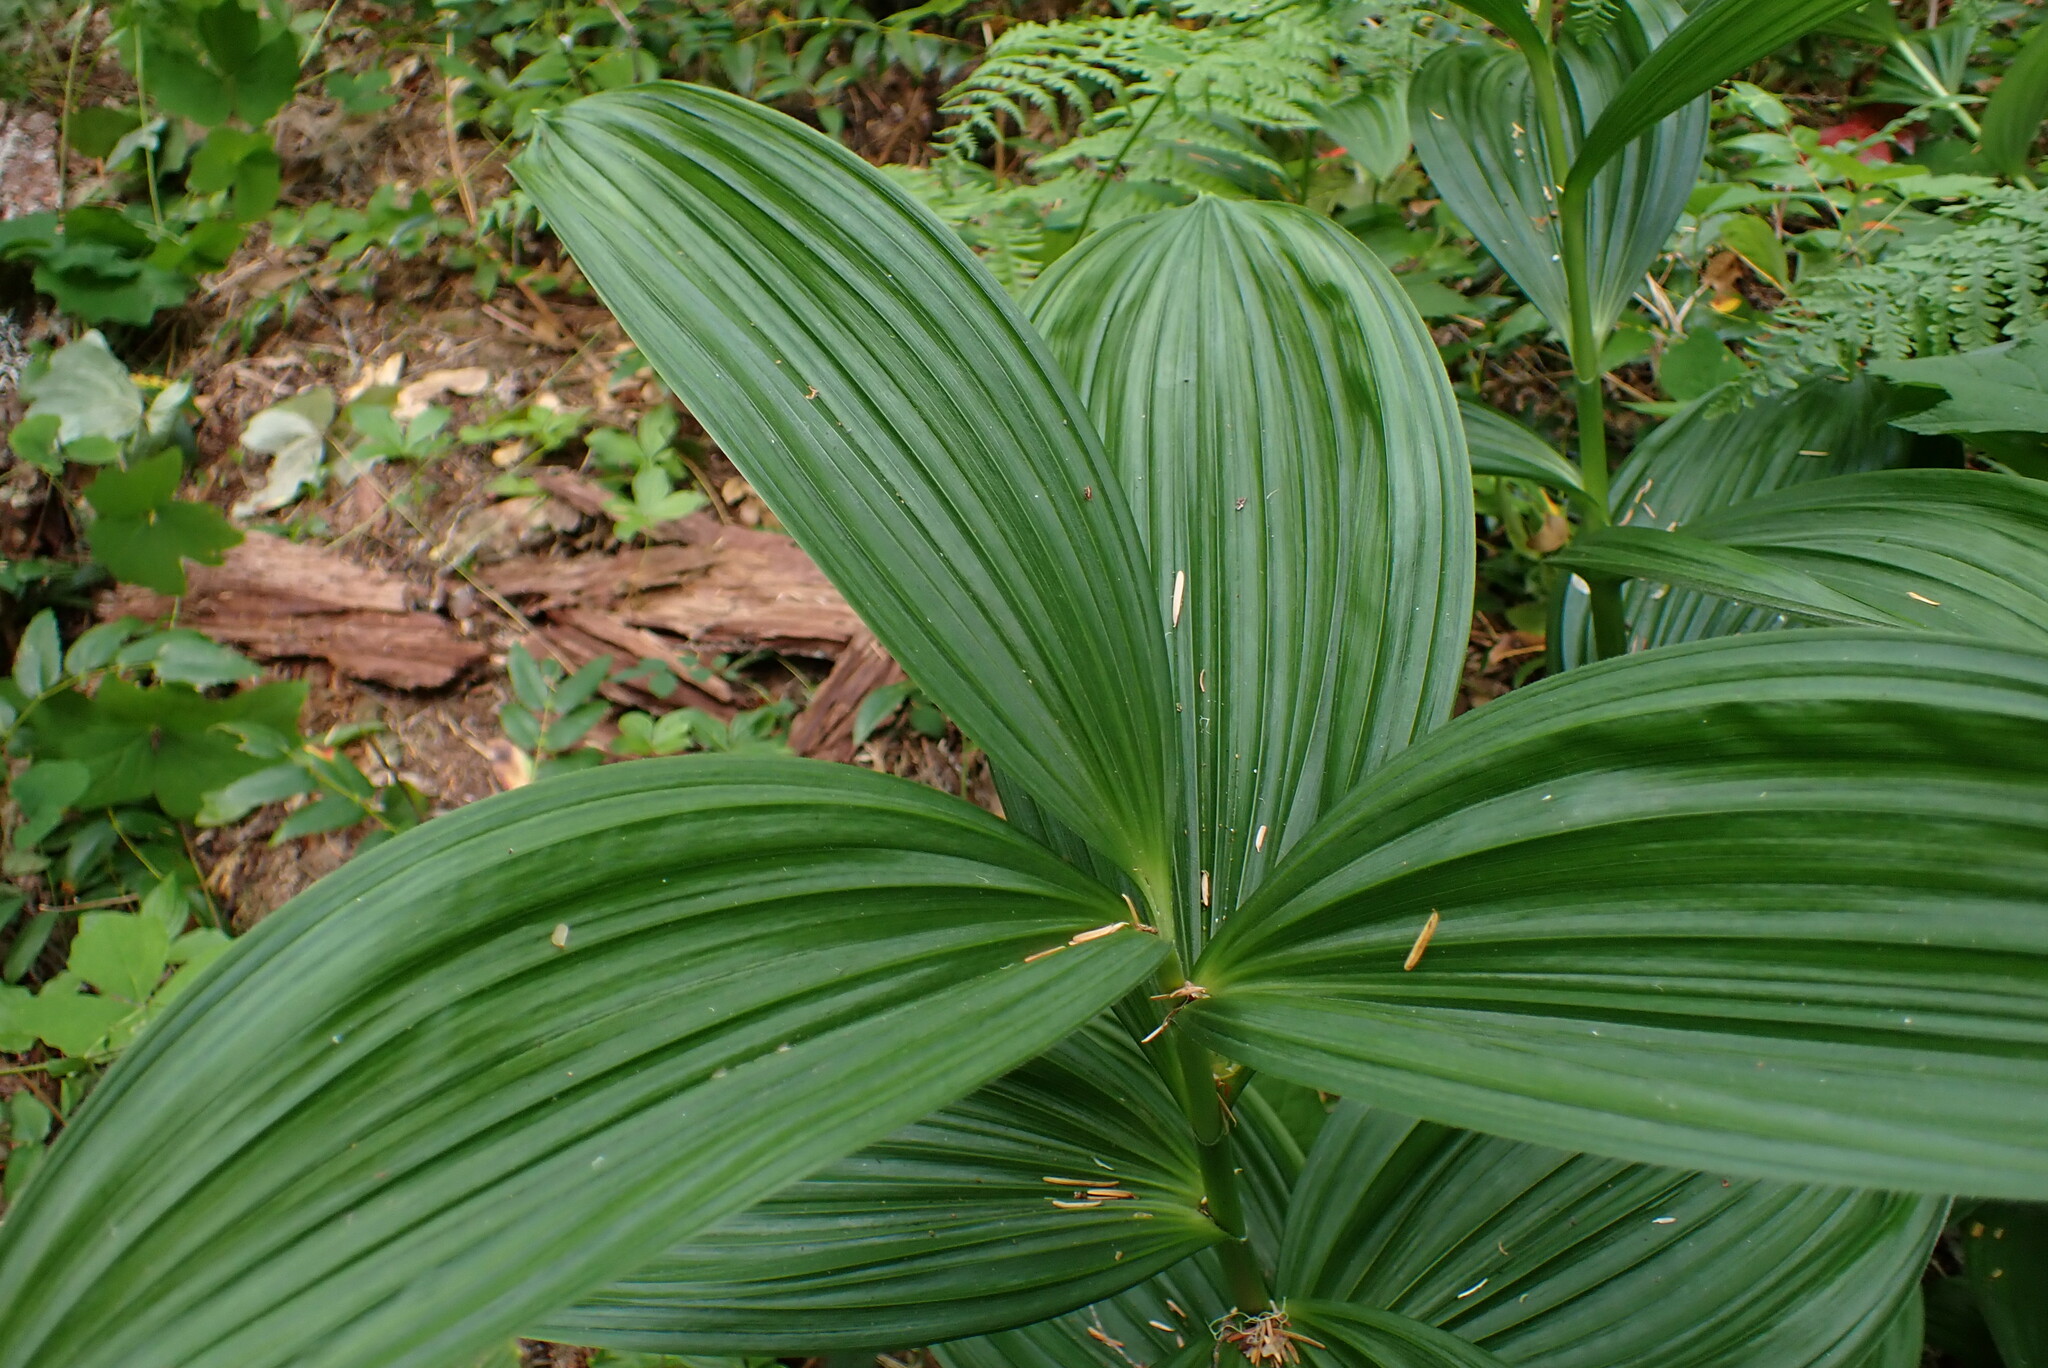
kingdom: Plantae
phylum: Tracheophyta
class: Liliopsida
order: Liliales
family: Melanthiaceae
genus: Veratrum
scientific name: Veratrum viride
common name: American false hellebore
